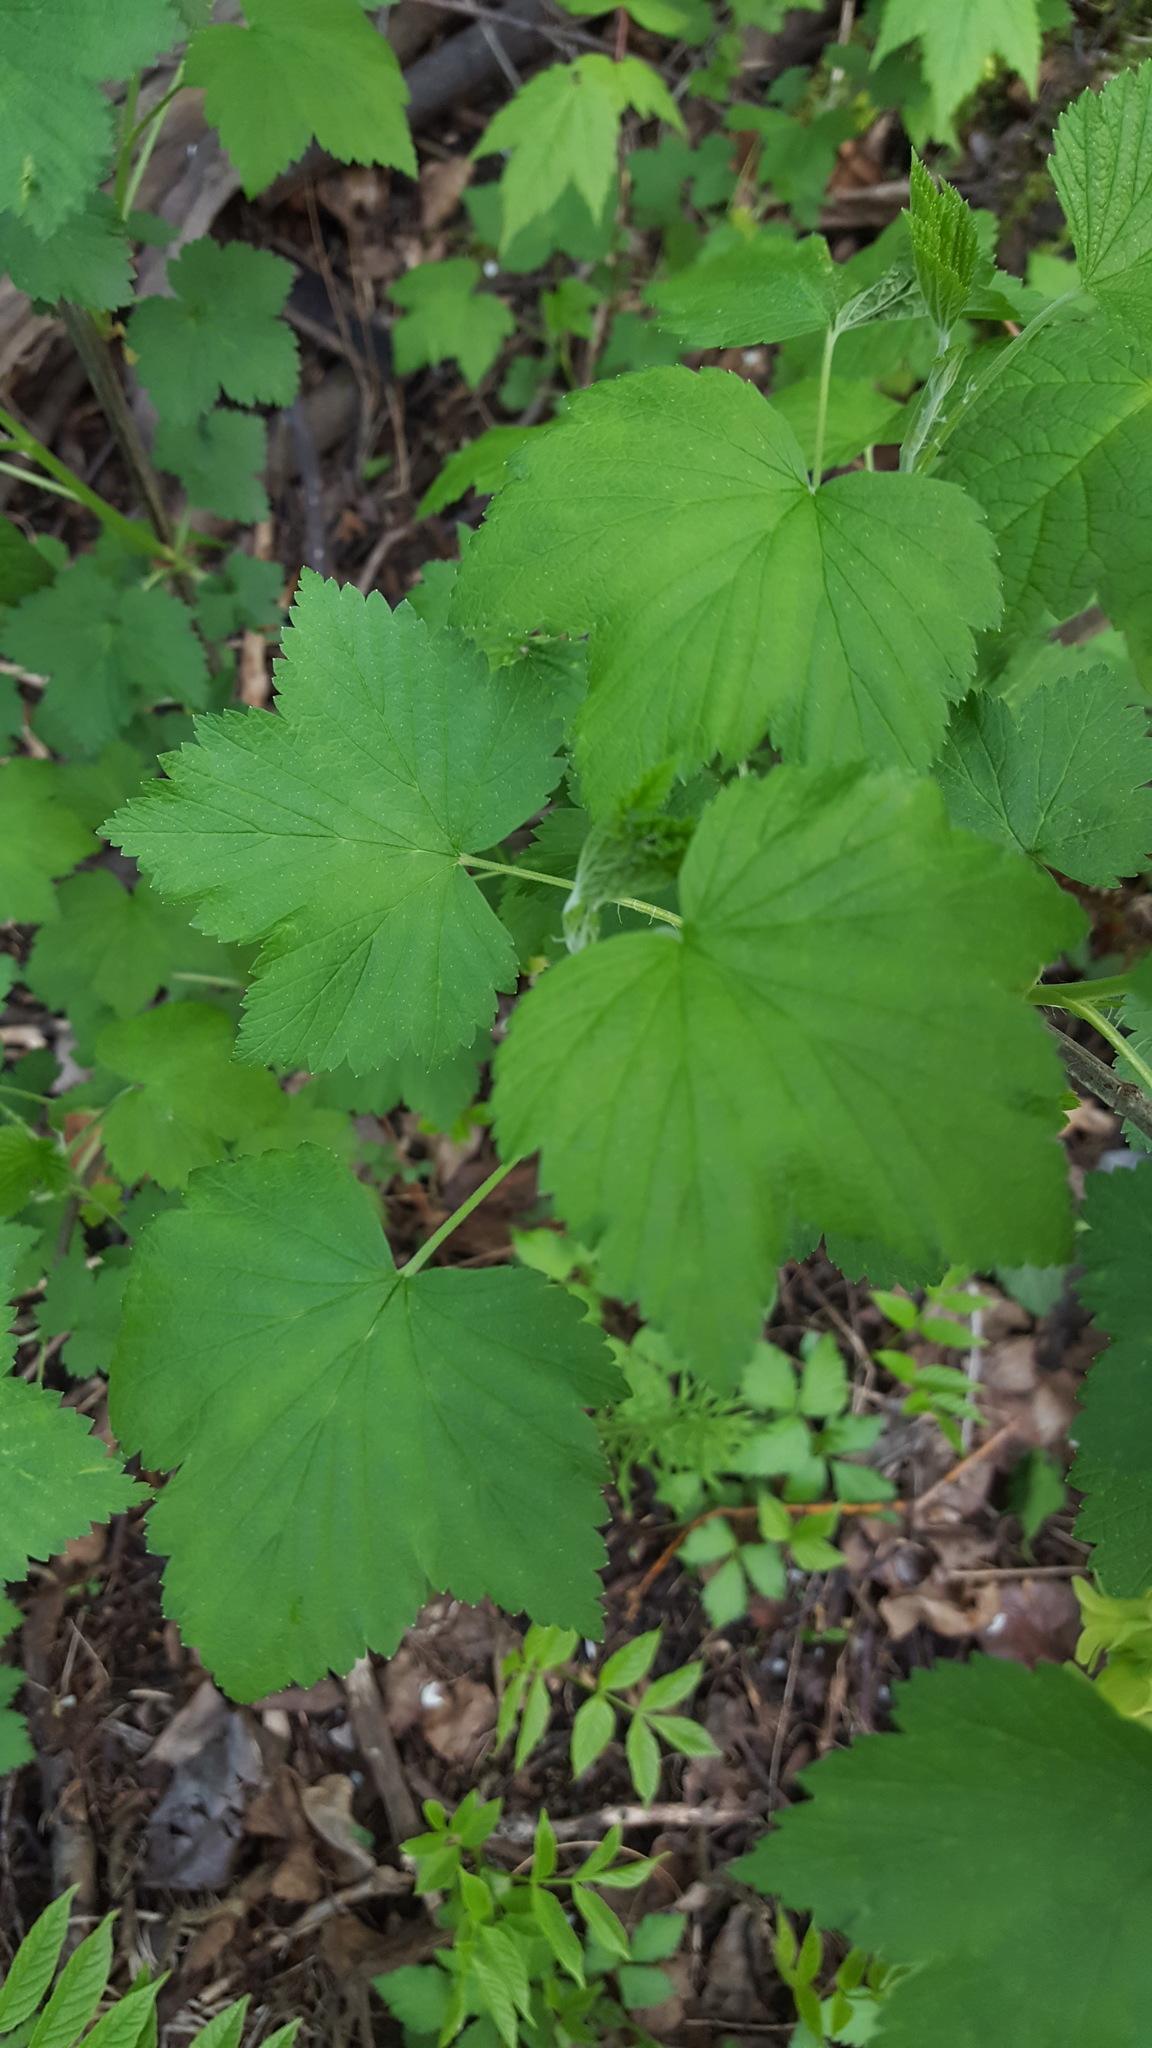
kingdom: Plantae
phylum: Tracheophyta
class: Magnoliopsida
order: Saxifragales
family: Grossulariaceae
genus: Ribes
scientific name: Ribes americanum
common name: American black currant
